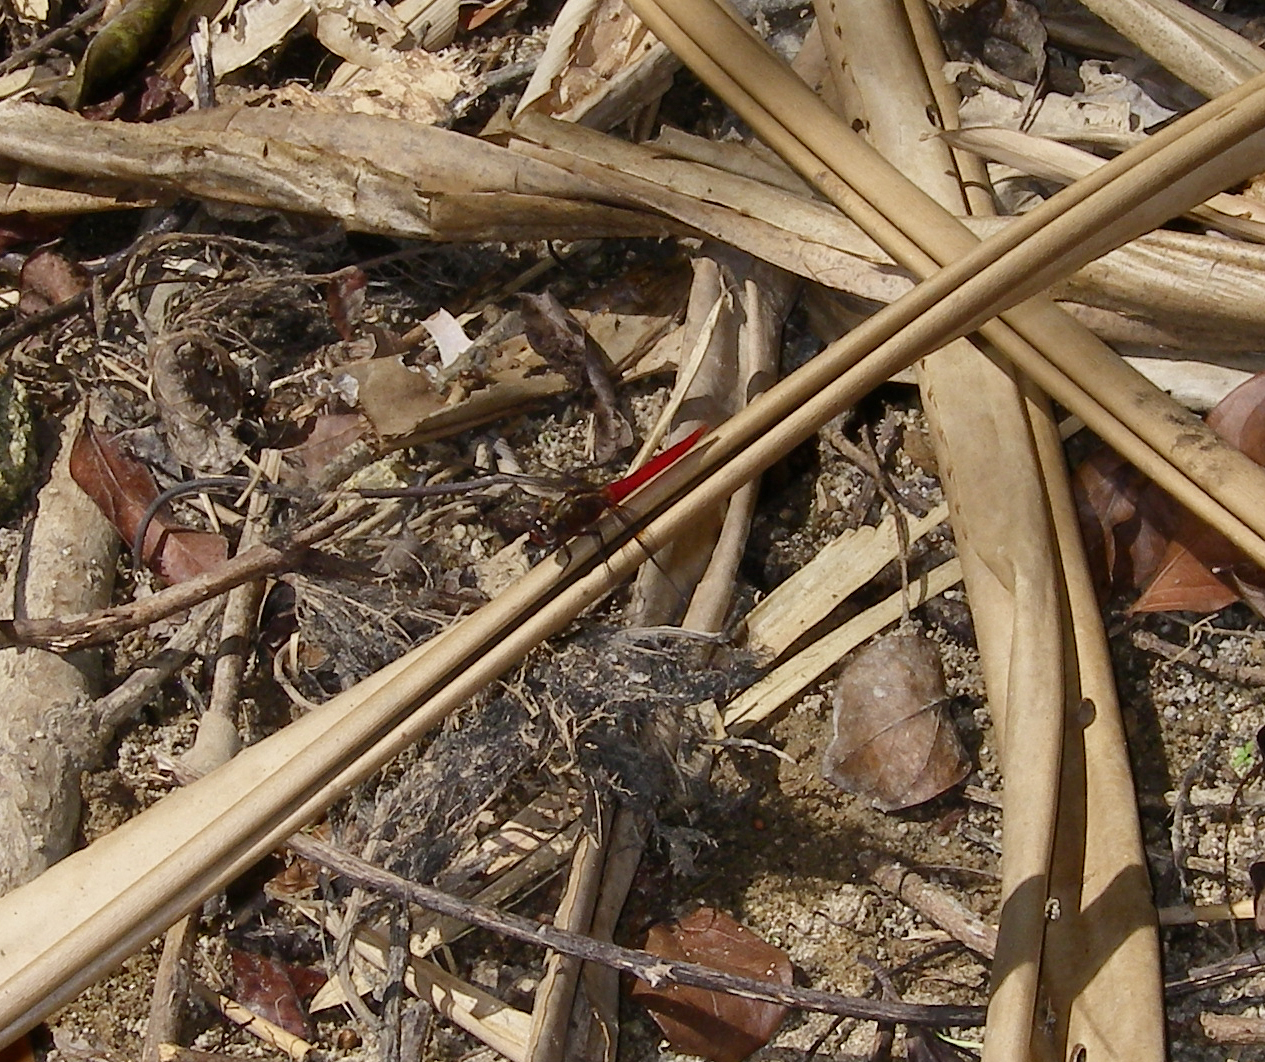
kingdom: Animalia
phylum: Arthropoda
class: Insecta
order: Odonata
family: Libellulidae
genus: Orthetrum
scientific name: Orthetrum chrysis
